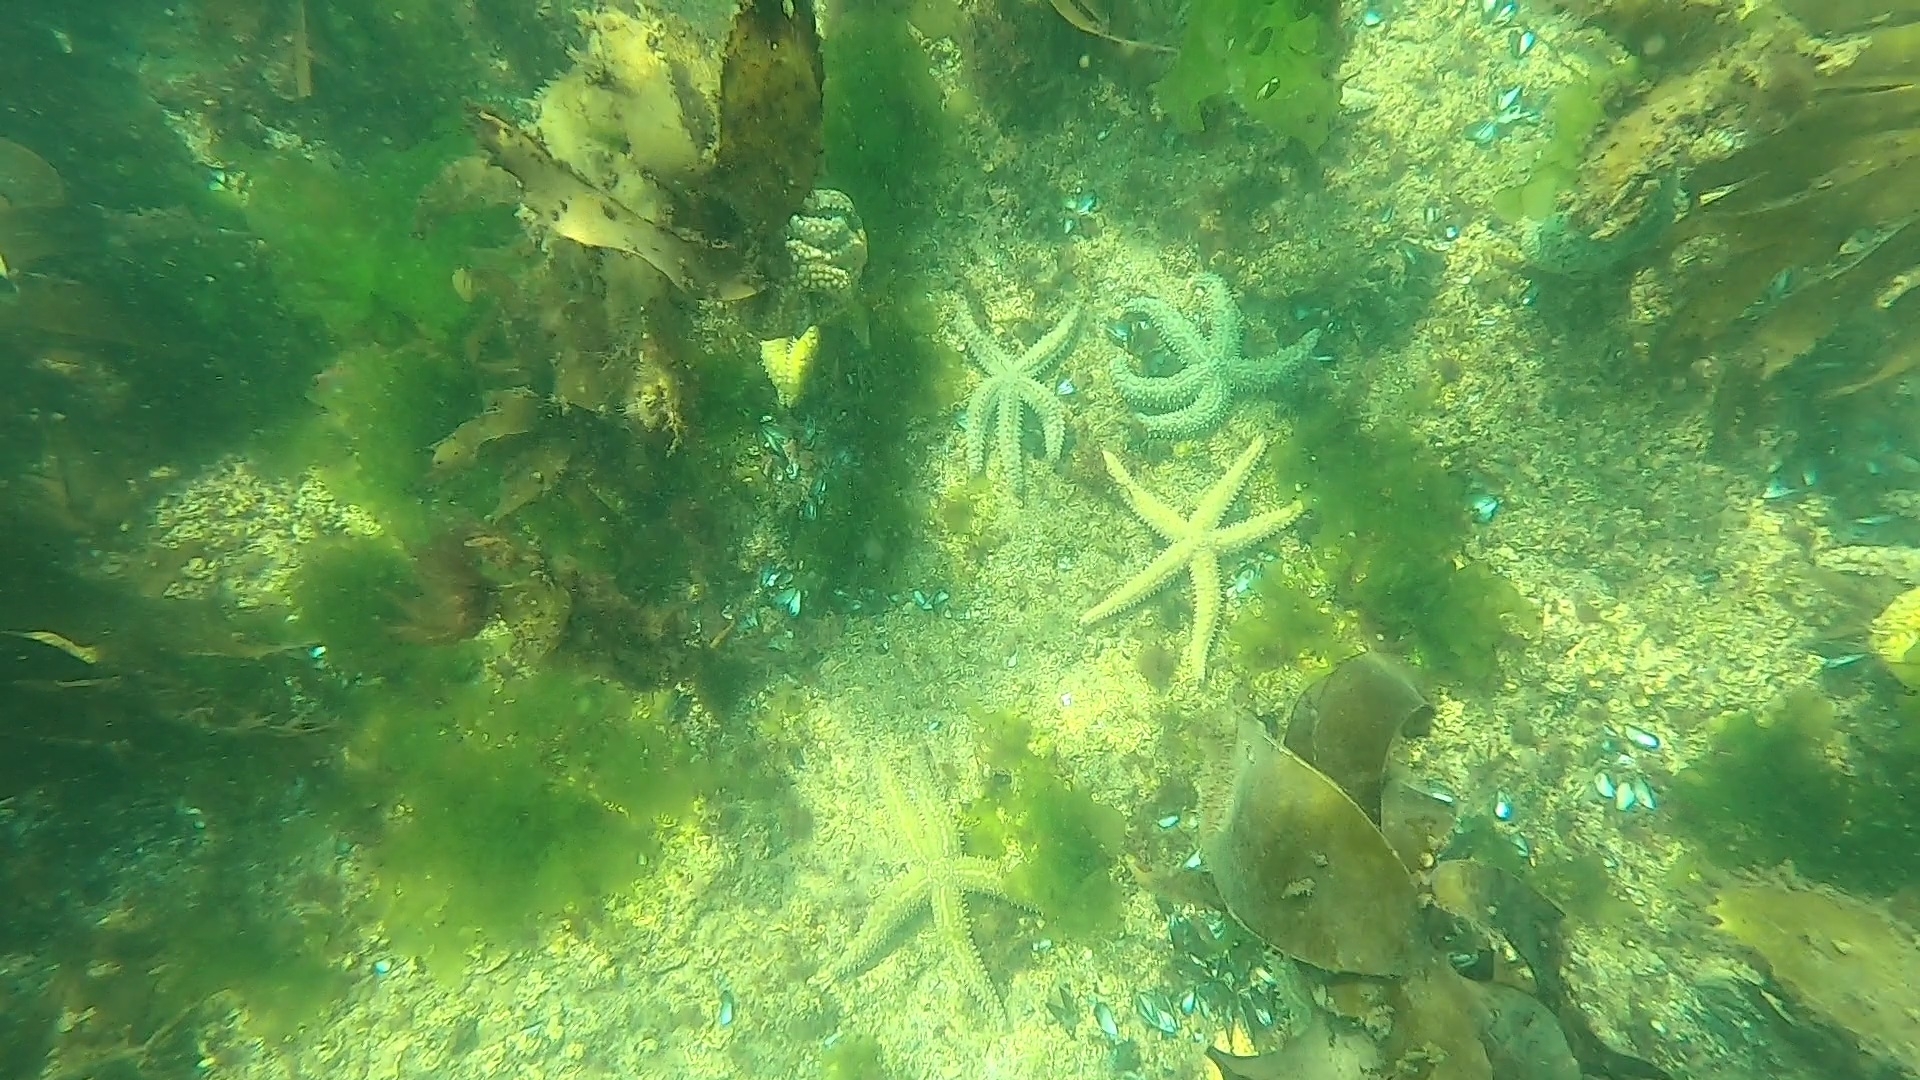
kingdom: Animalia
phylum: Echinodermata
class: Asteroidea
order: Forcipulatida
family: Asteriidae
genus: Marthasterias
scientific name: Marthasterias glacialis
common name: Spiny starfish
